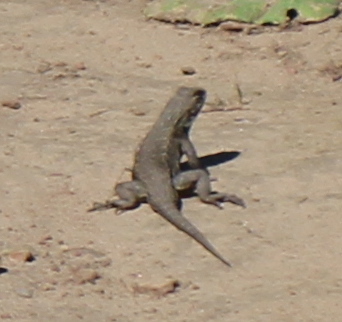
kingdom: Animalia
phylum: Chordata
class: Squamata
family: Phrynosomatidae
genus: Sceloporus
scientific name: Sceloporus occidentalis
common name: Western fence lizard
